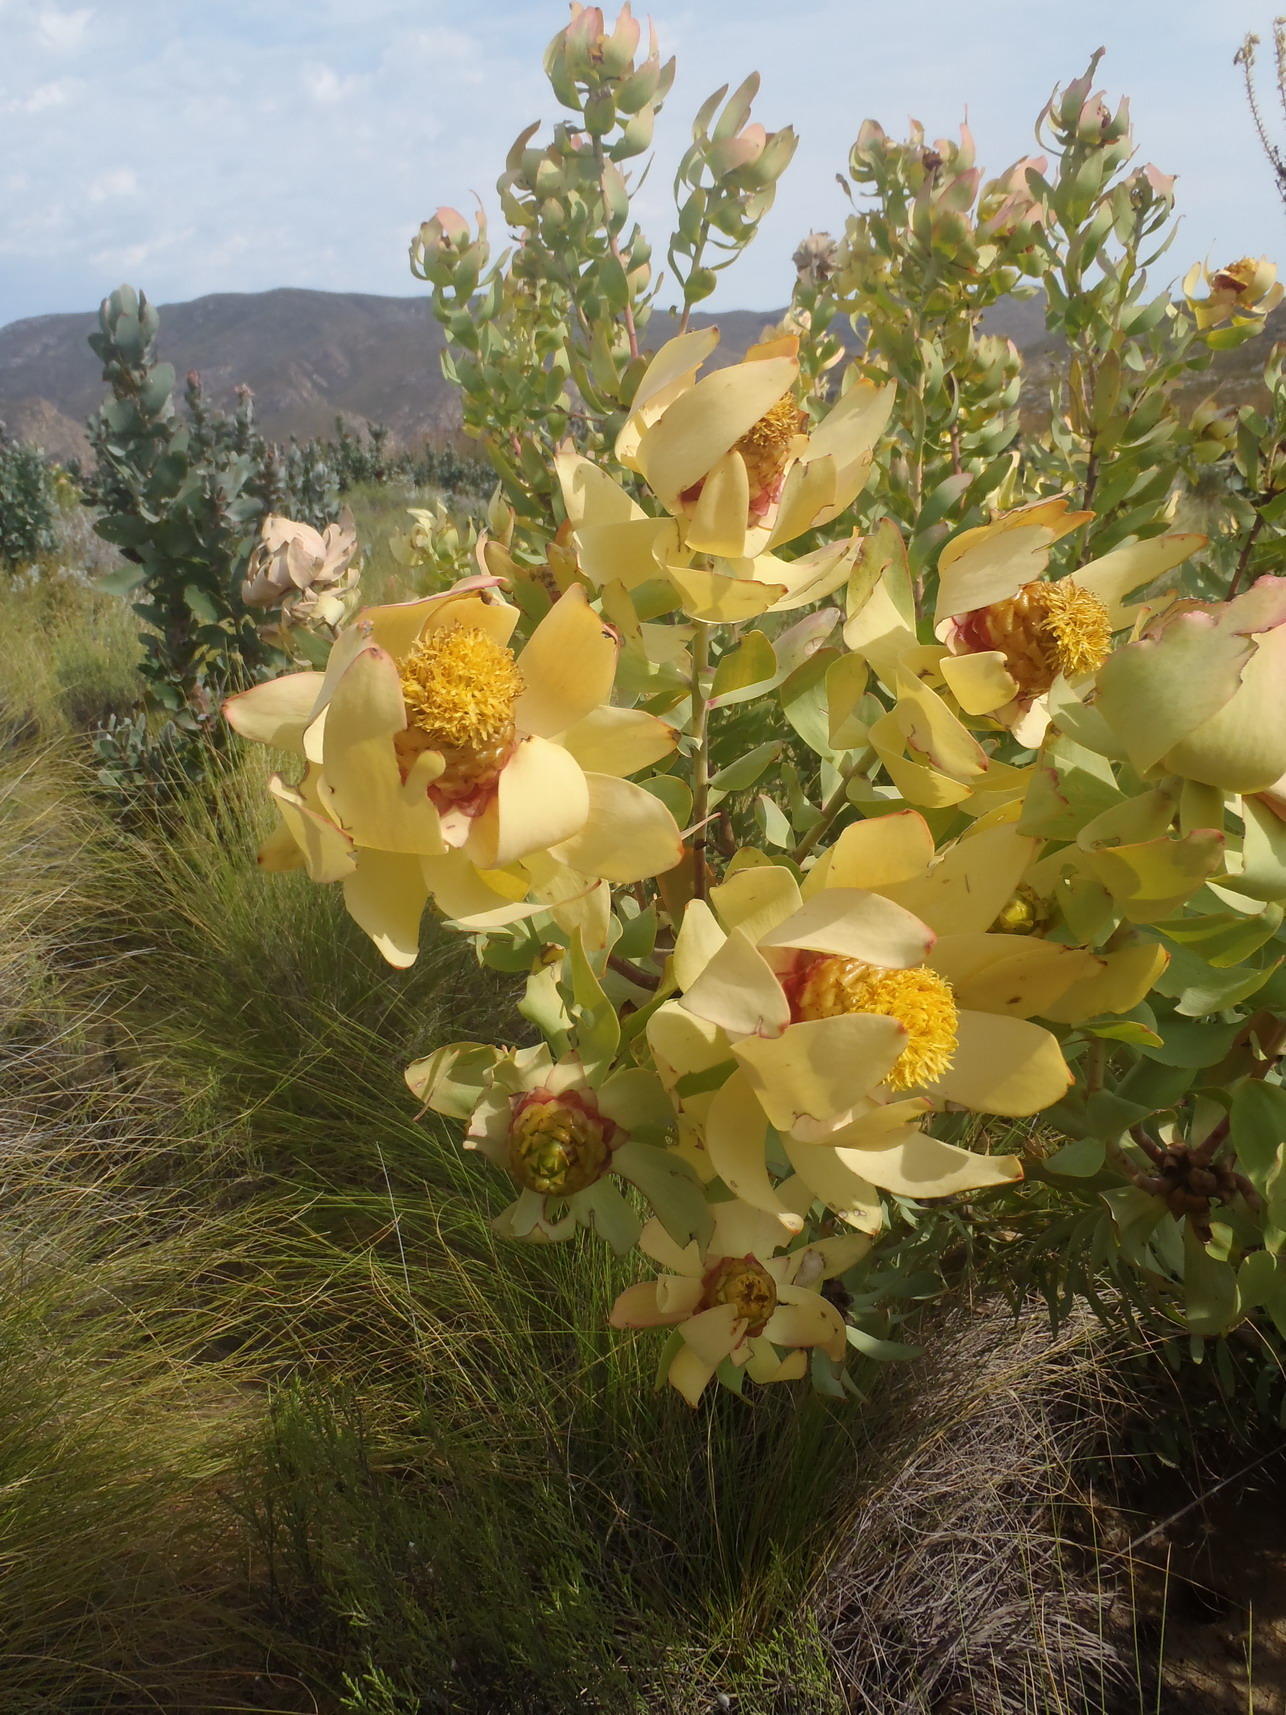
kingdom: Plantae
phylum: Tracheophyta
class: Magnoliopsida
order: Proteales
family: Proteaceae
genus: Leucadendron
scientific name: Leucadendron tinctum
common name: Spicy conebush
